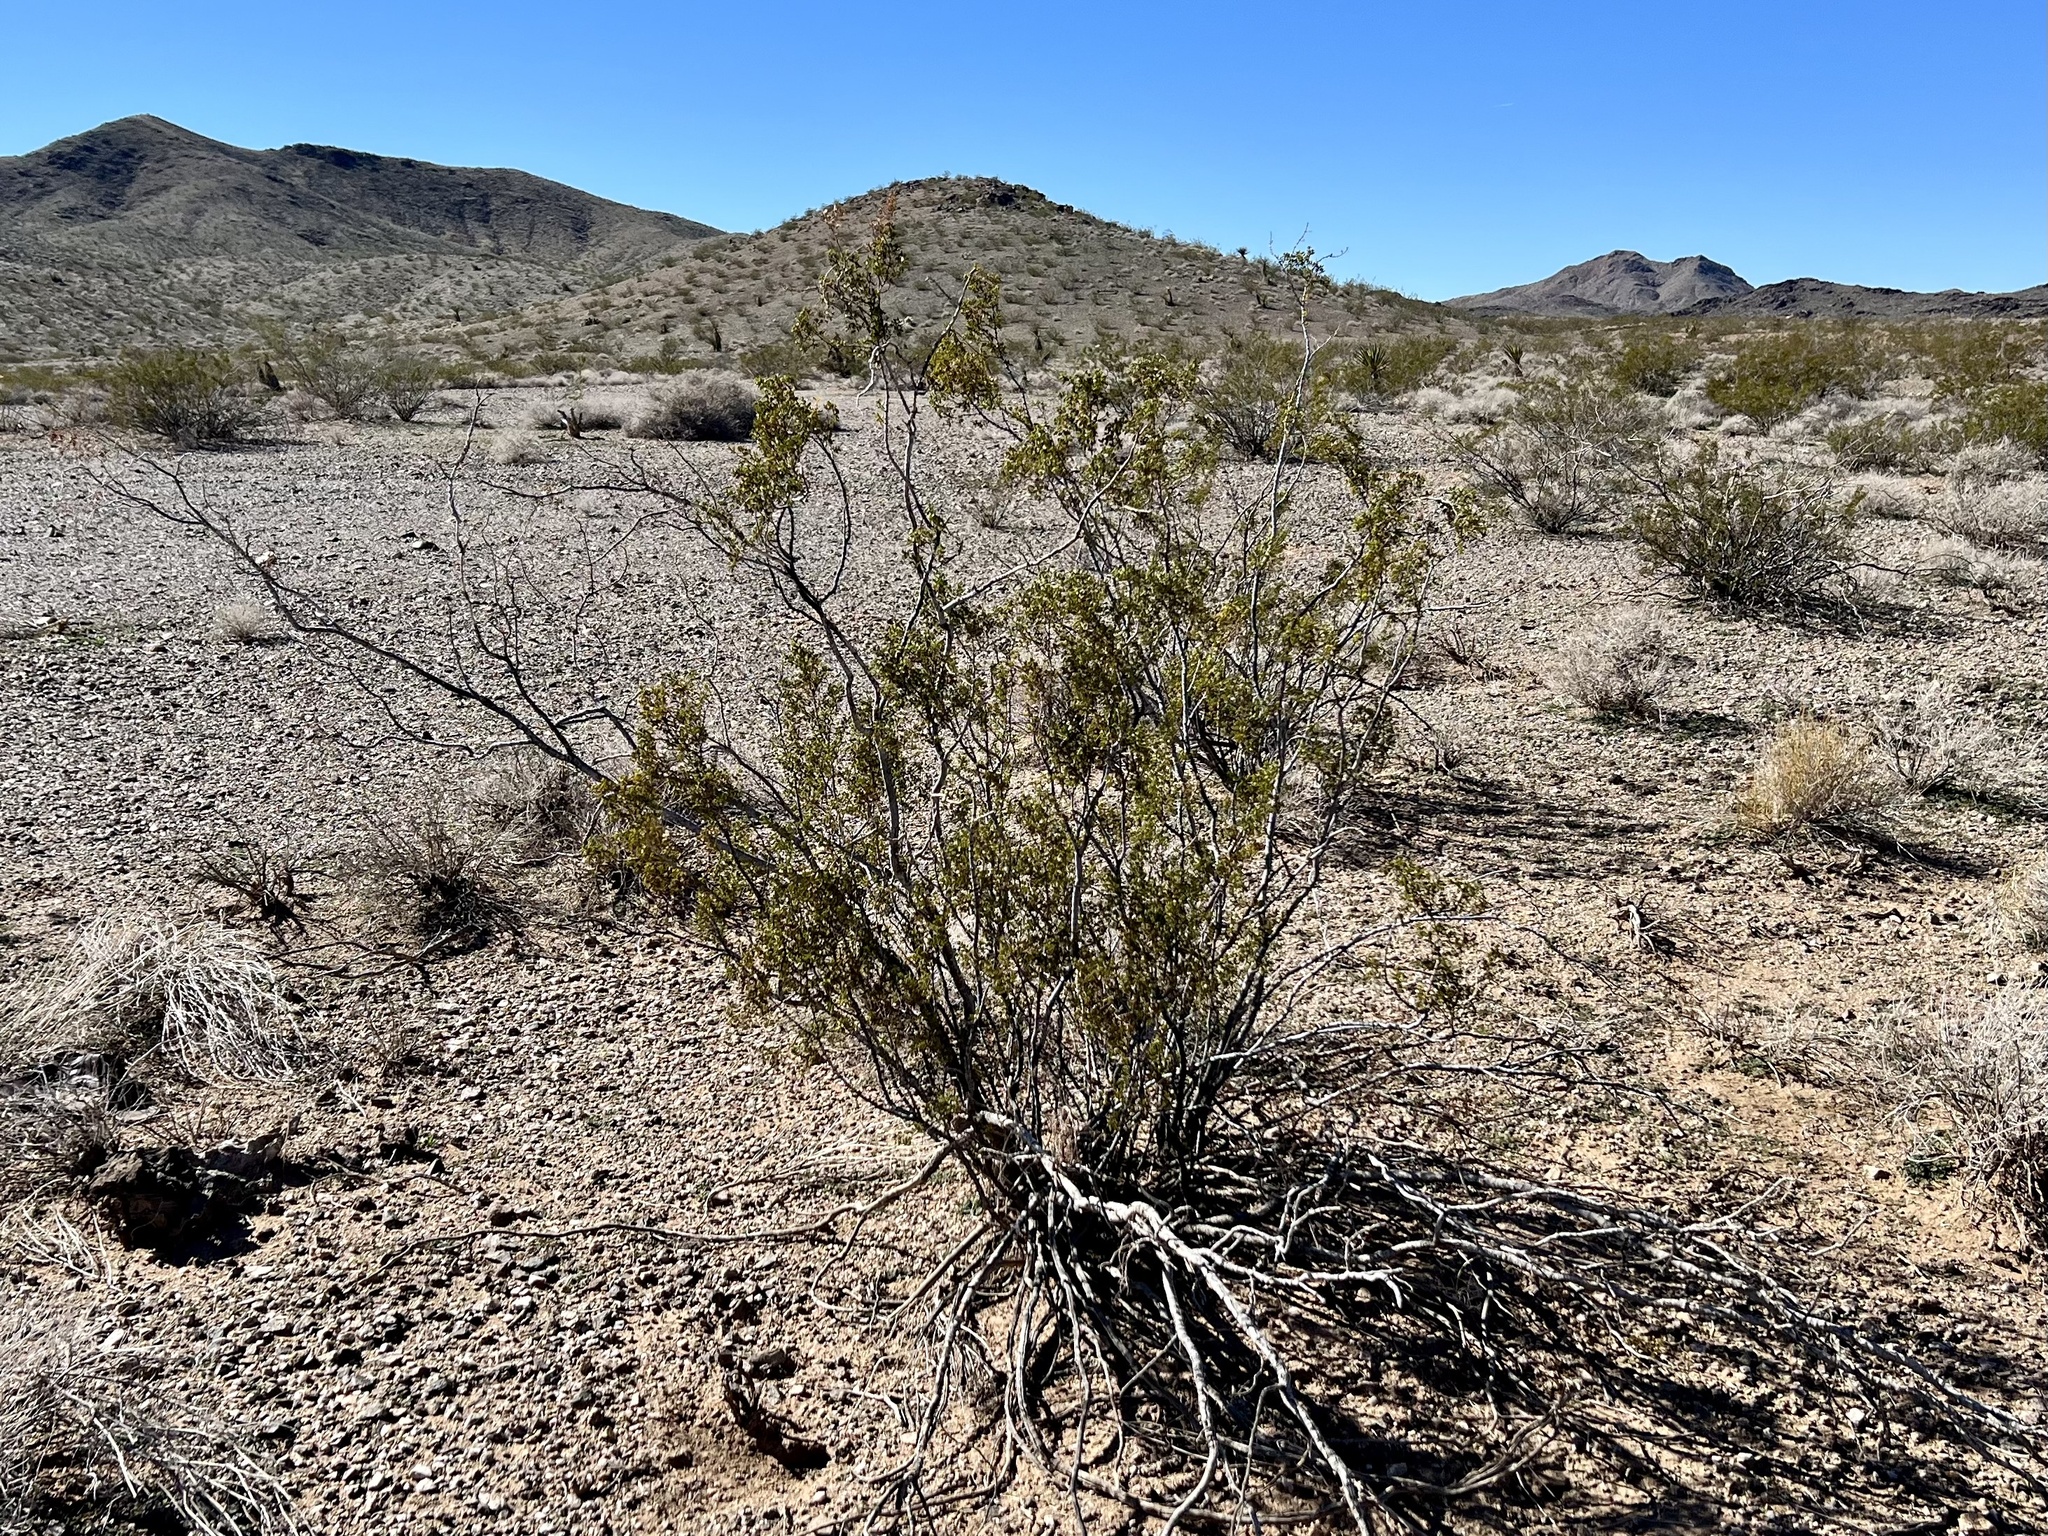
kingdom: Plantae
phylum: Tracheophyta
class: Magnoliopsida
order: Zygophyllales
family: Zygophyllaceae
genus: Larrea
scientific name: Larrea tridentata
